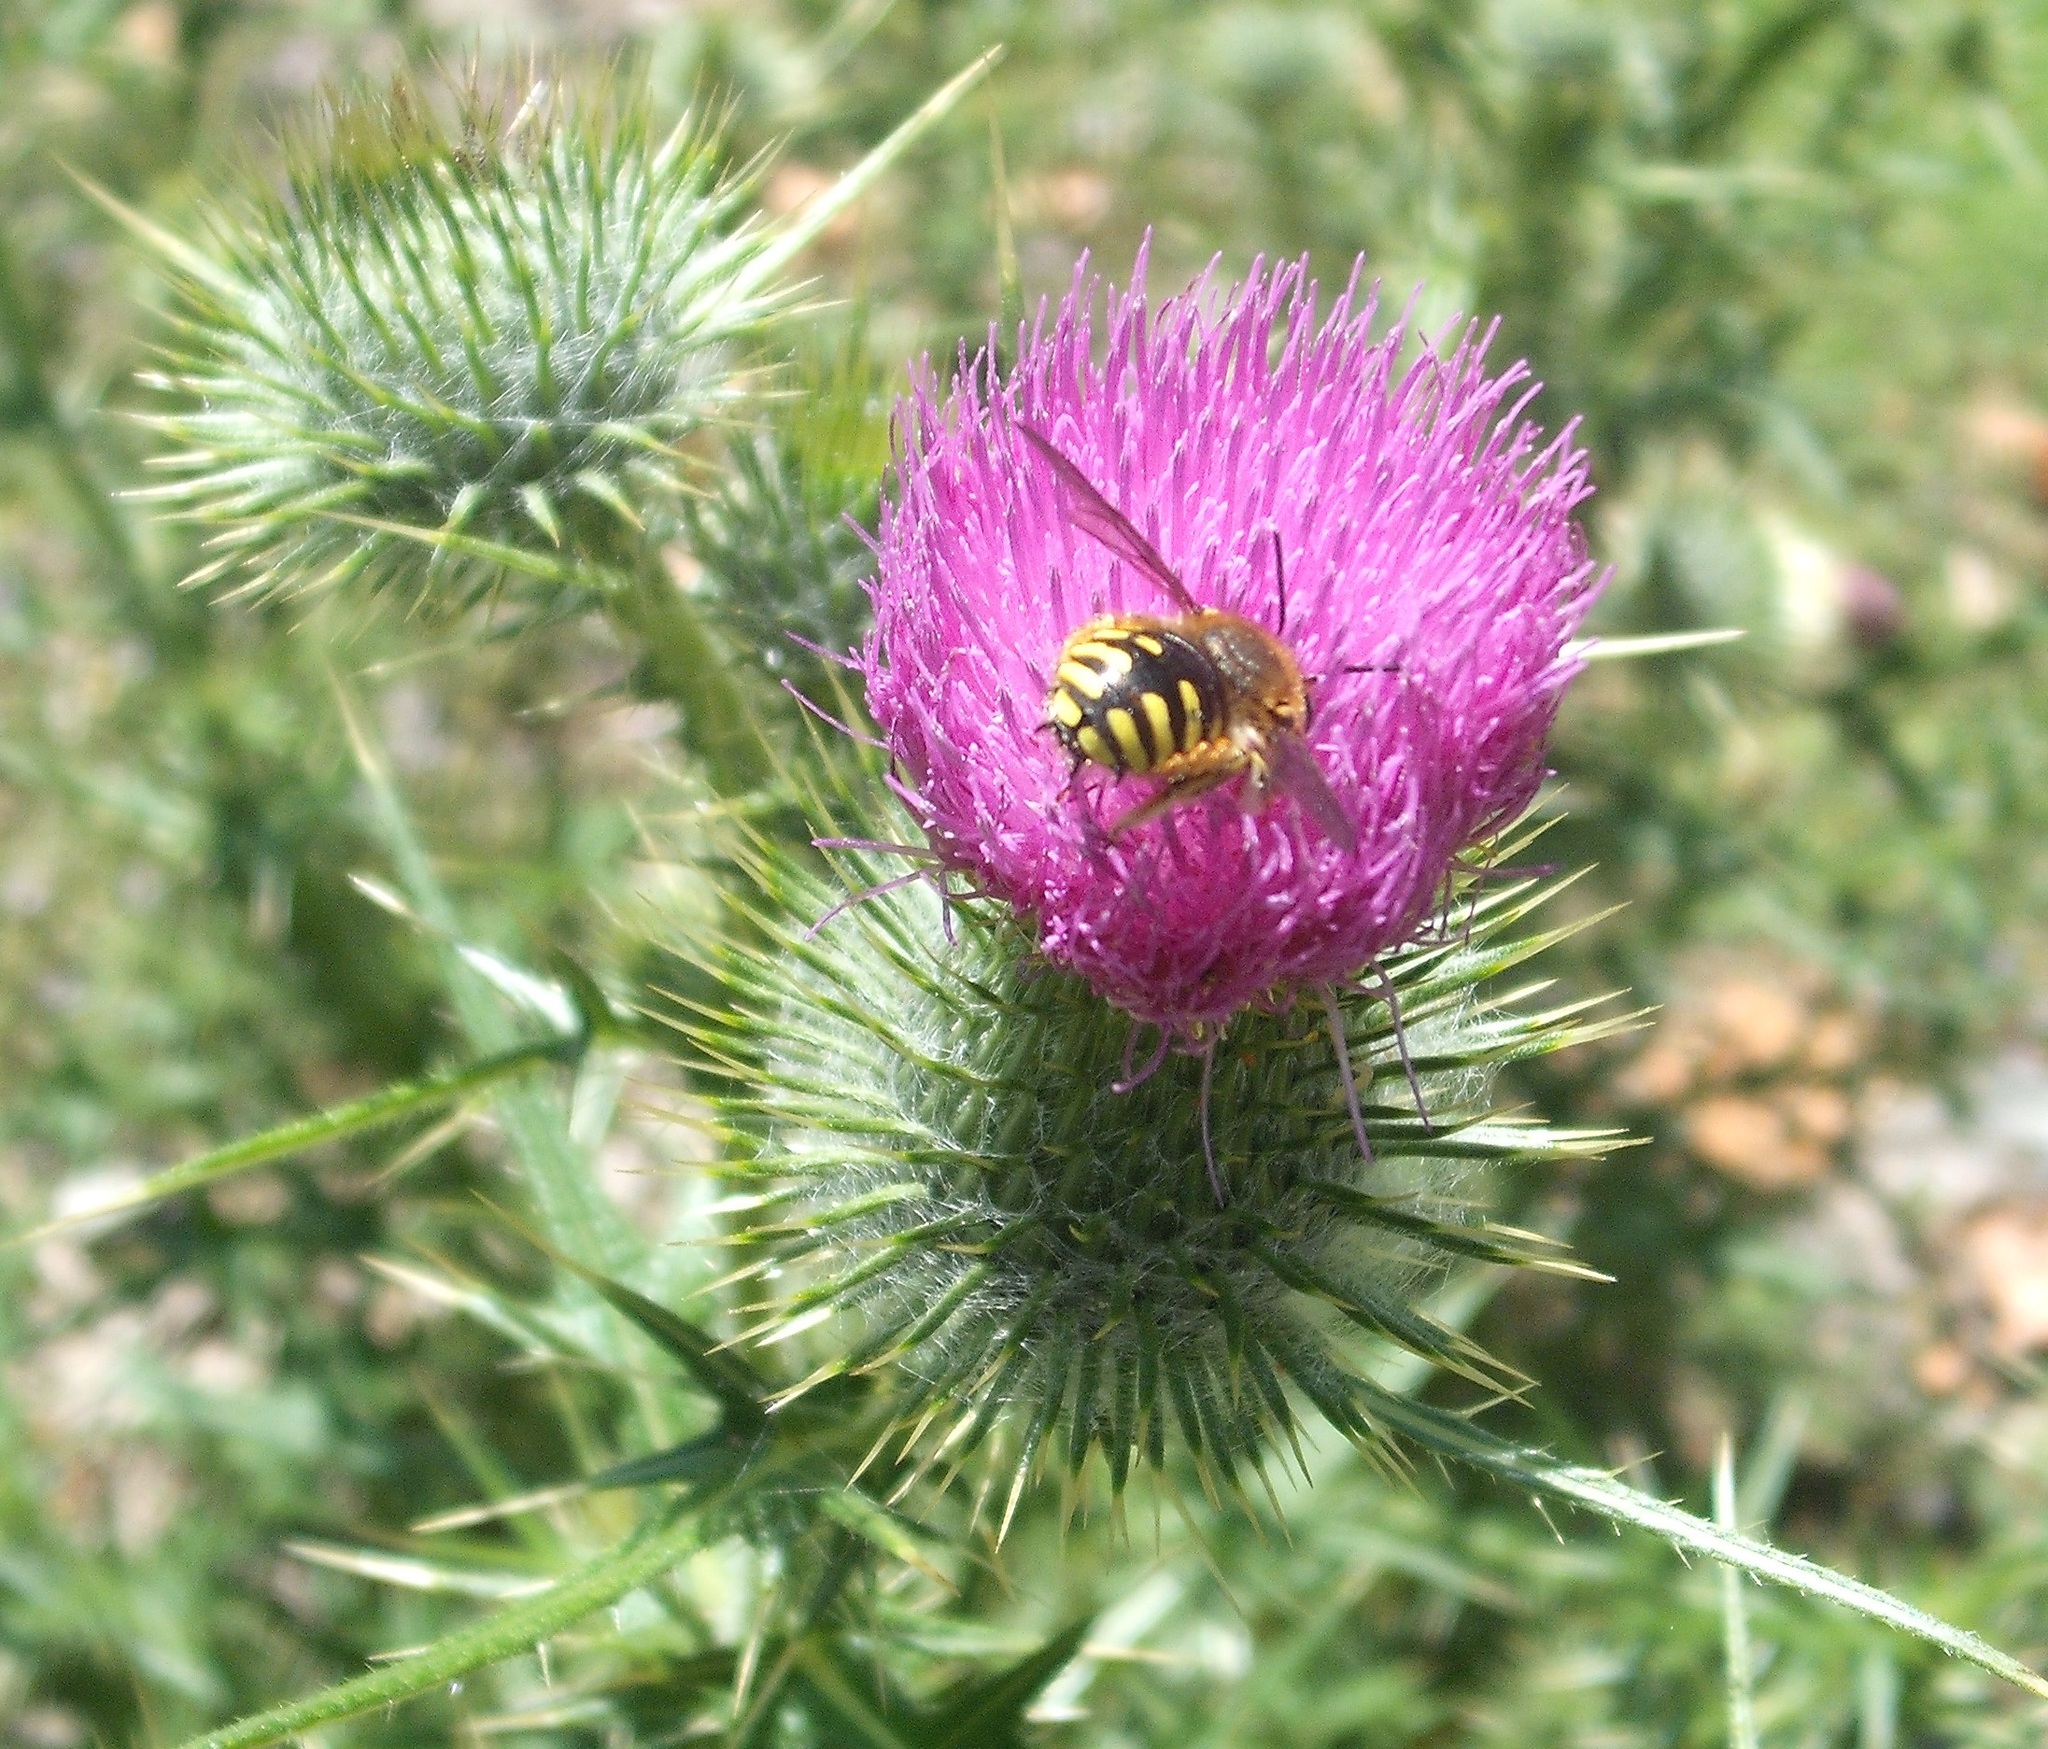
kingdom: Animalia
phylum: Arthropoda
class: Insecta
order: Hymenoptera
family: Megachilidae
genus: Anthidium
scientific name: Anthidium manicatum
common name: Wool carder bee
